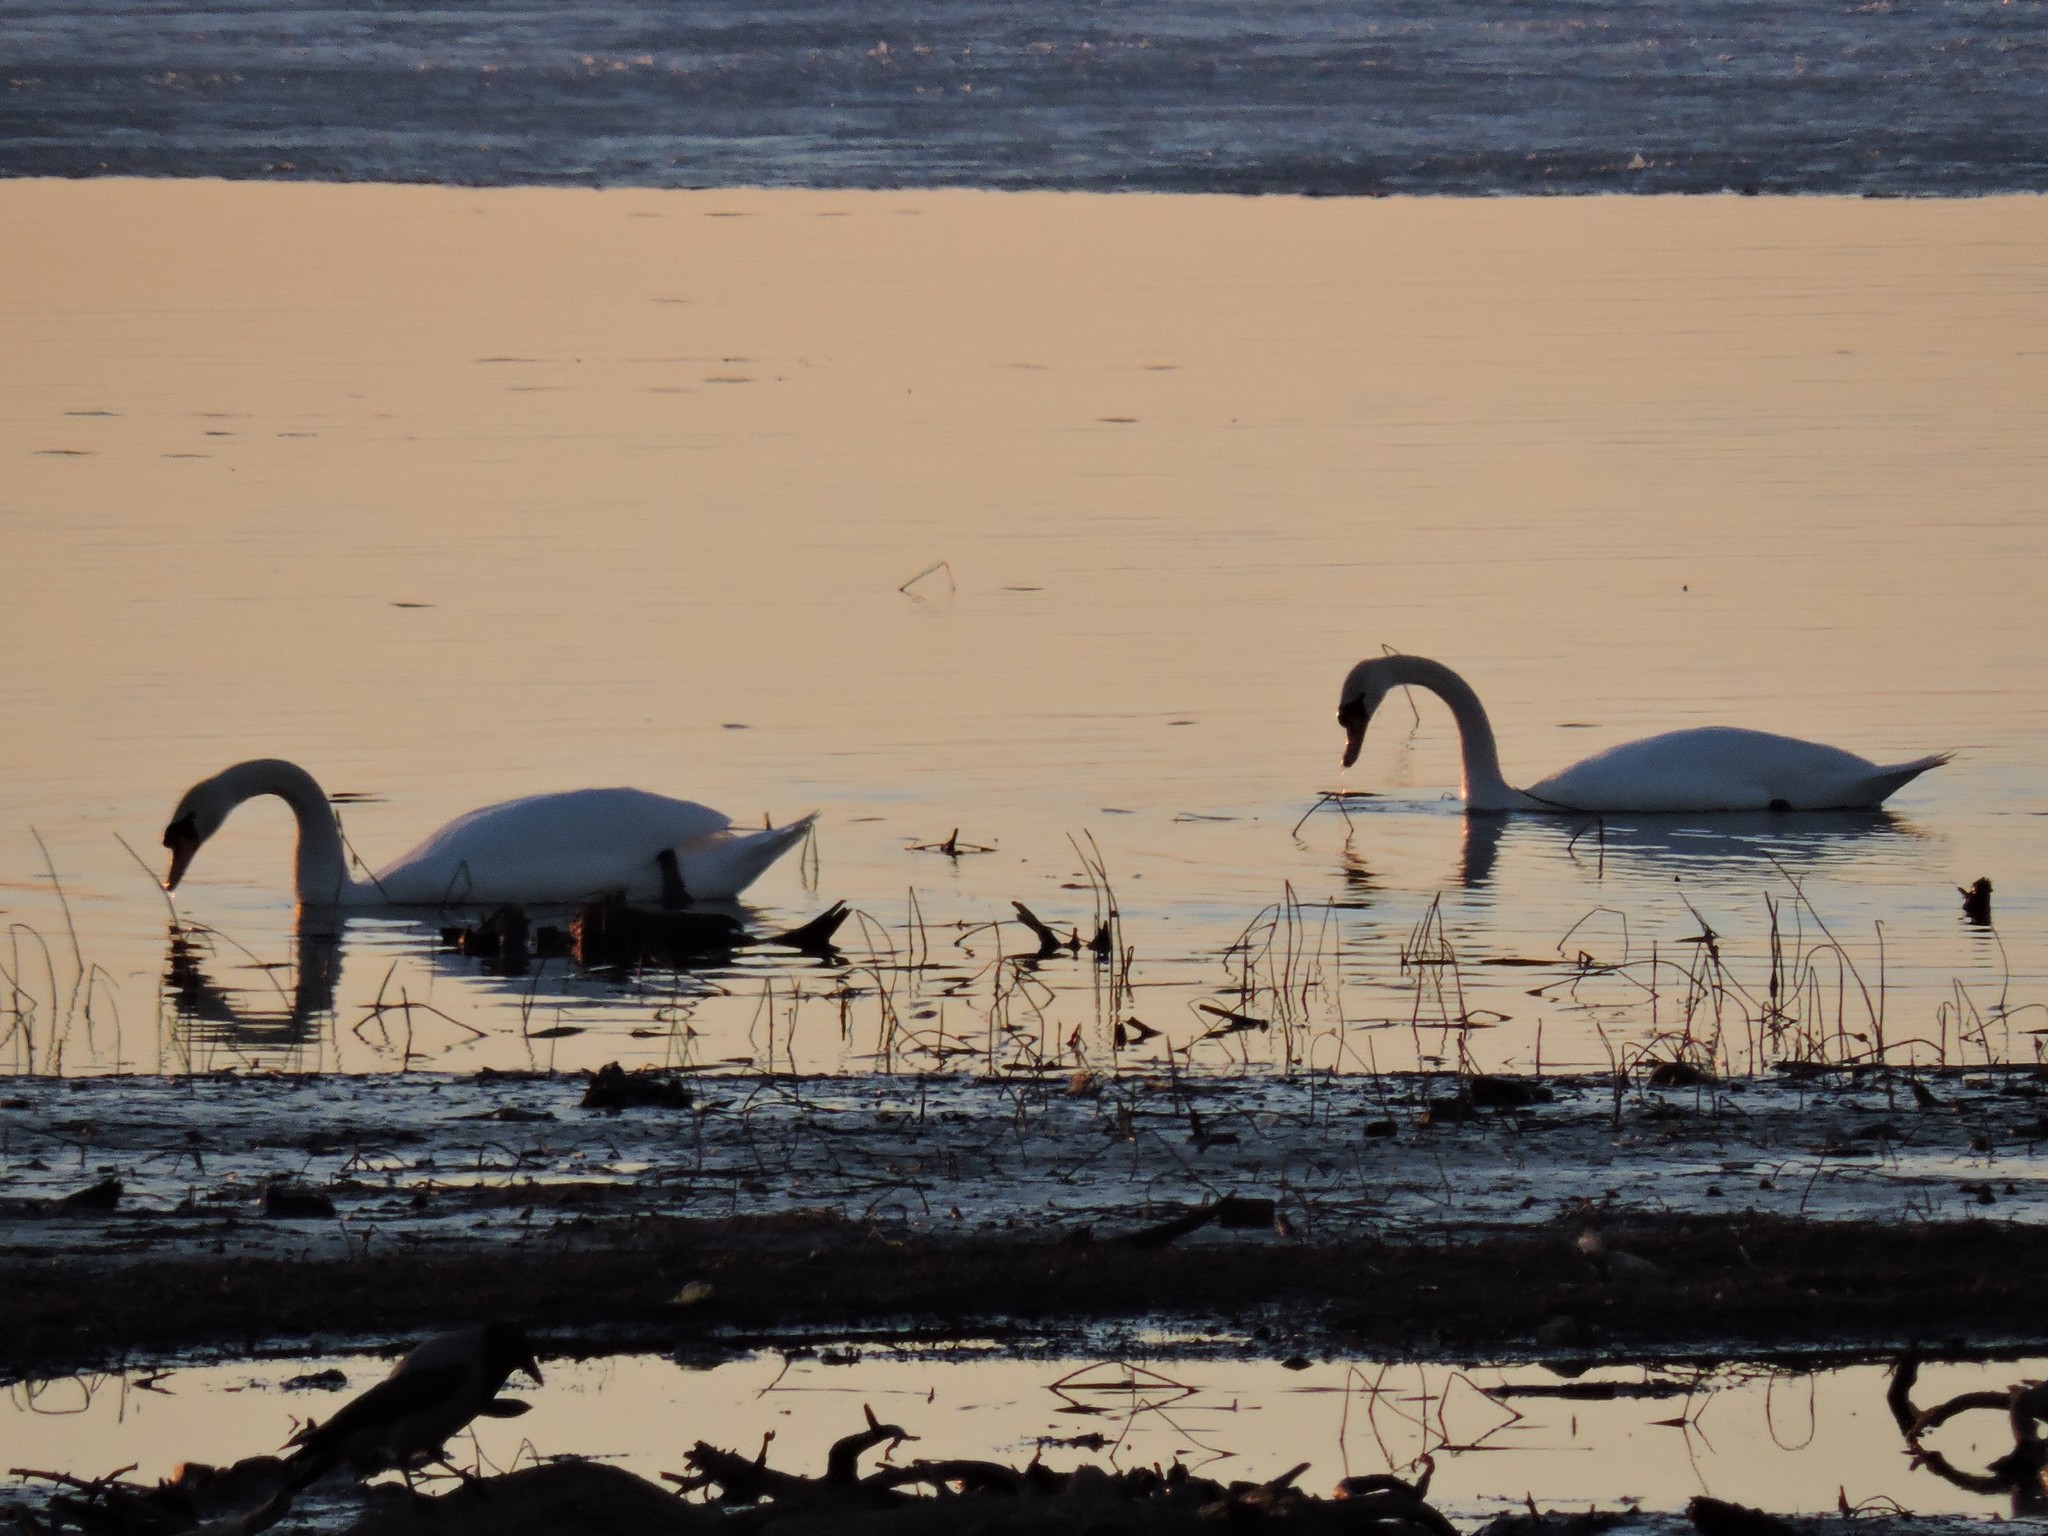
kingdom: Animalia
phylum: Chordata
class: Aves
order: Anseriformes
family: Anatidae
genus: Cygnus
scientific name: Cygnus olor
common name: Mute swan
